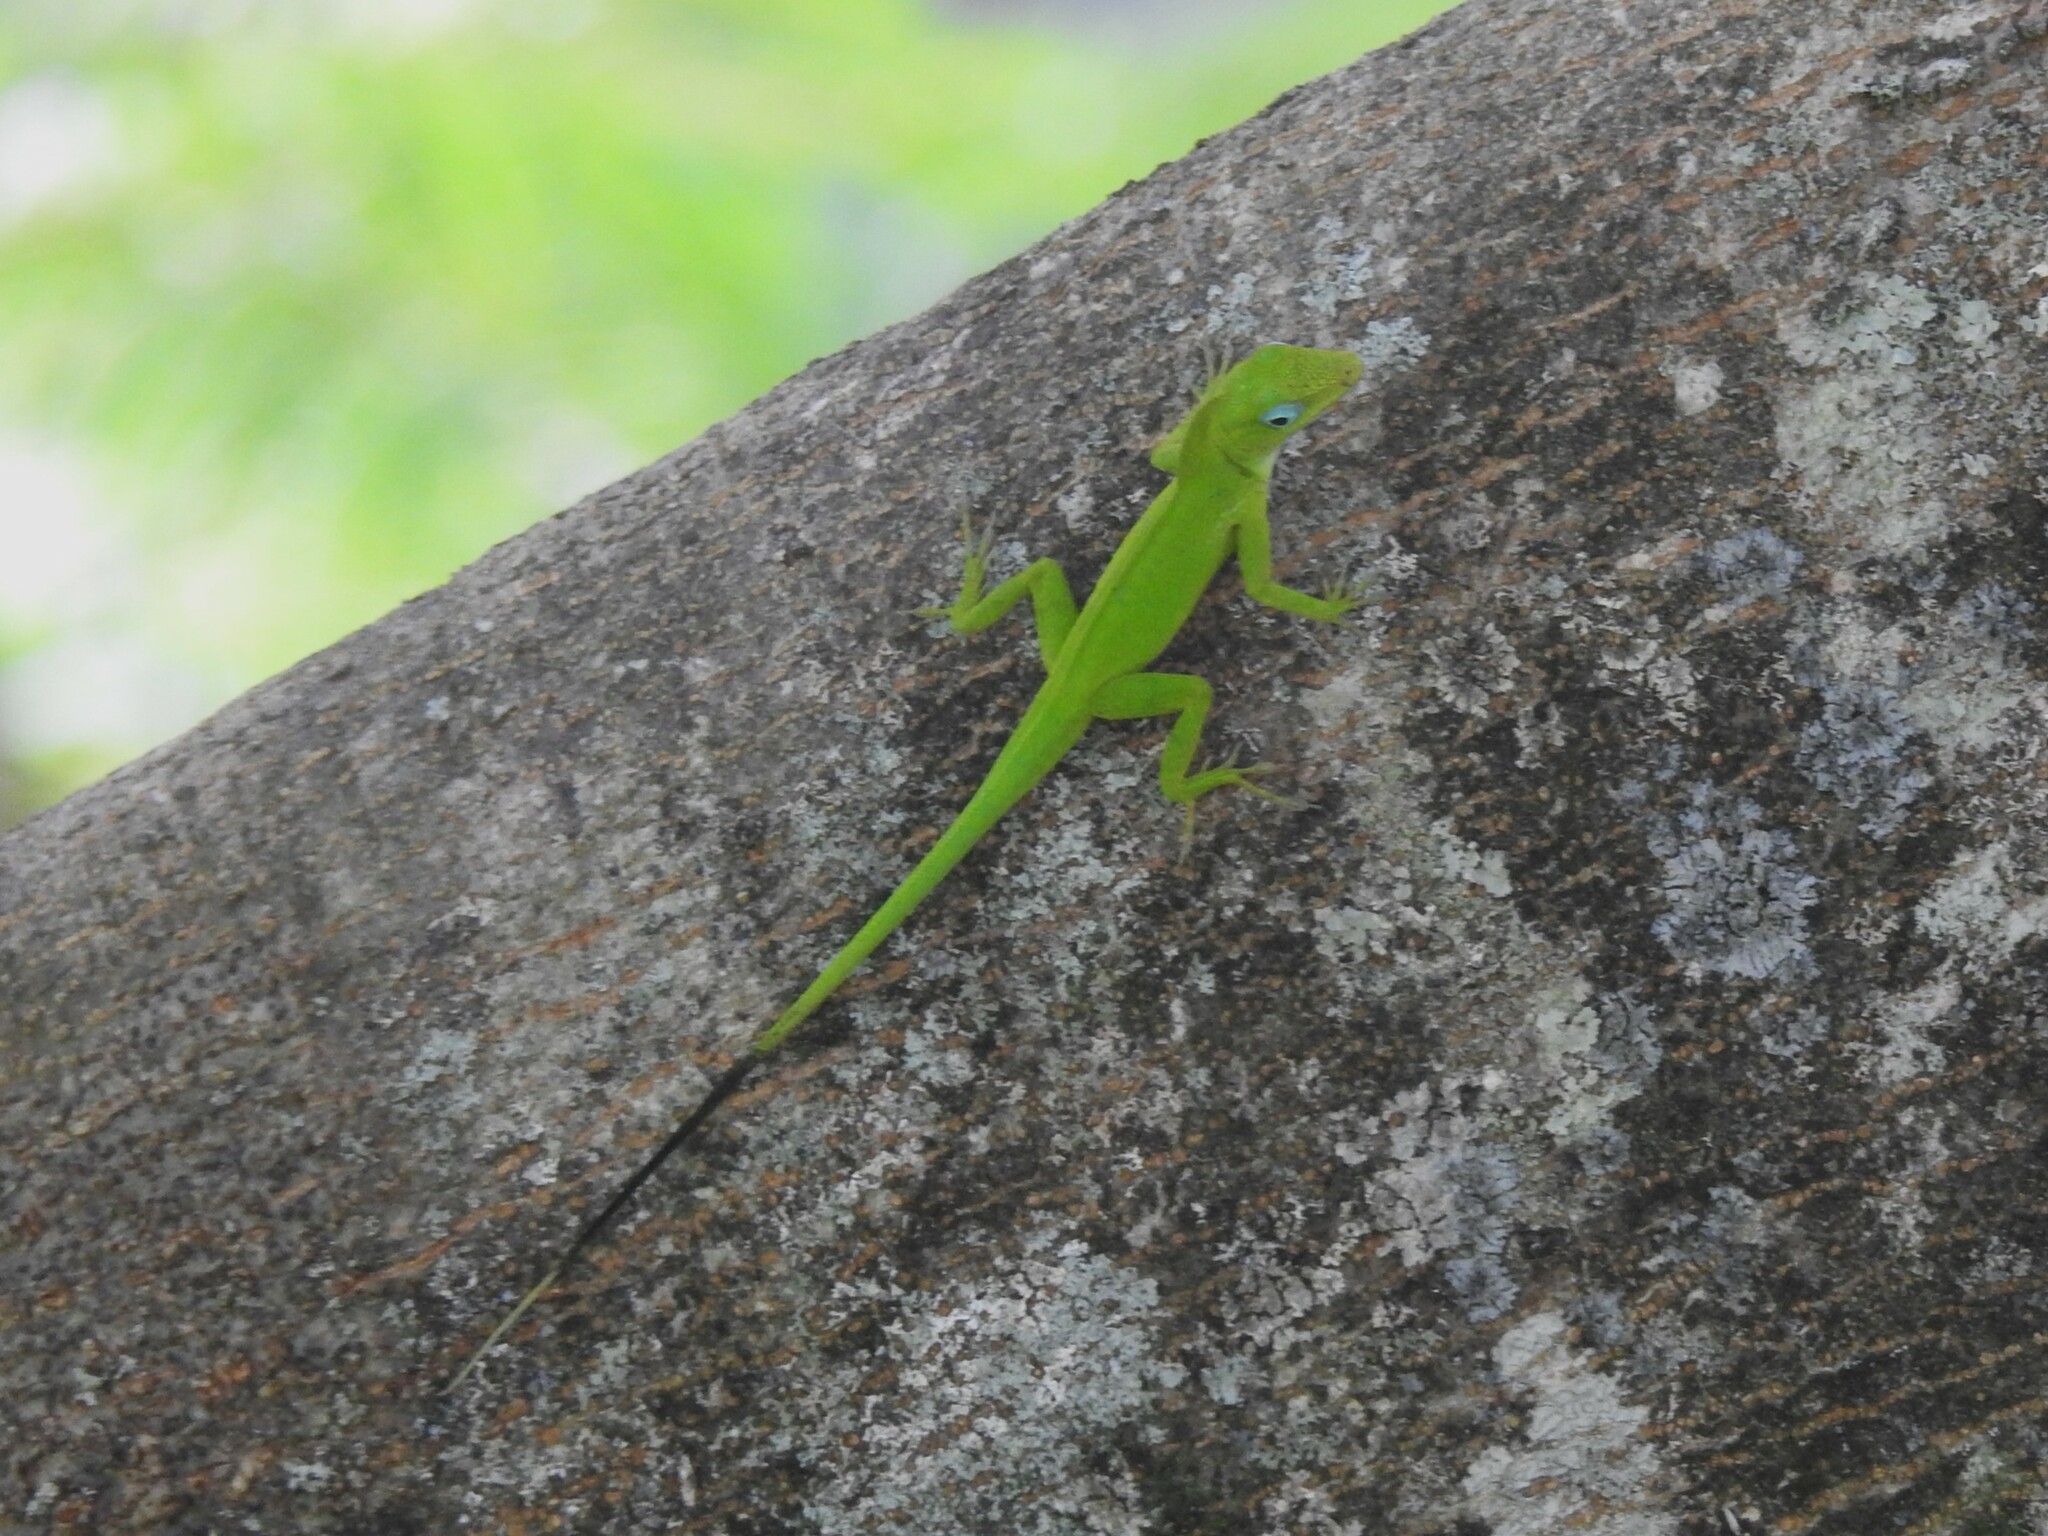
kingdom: Animalia
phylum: Chordata
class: Squamata
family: Dactyloidae
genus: Anolis
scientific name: Anolis marmoratus
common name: Guadeloupe anole
